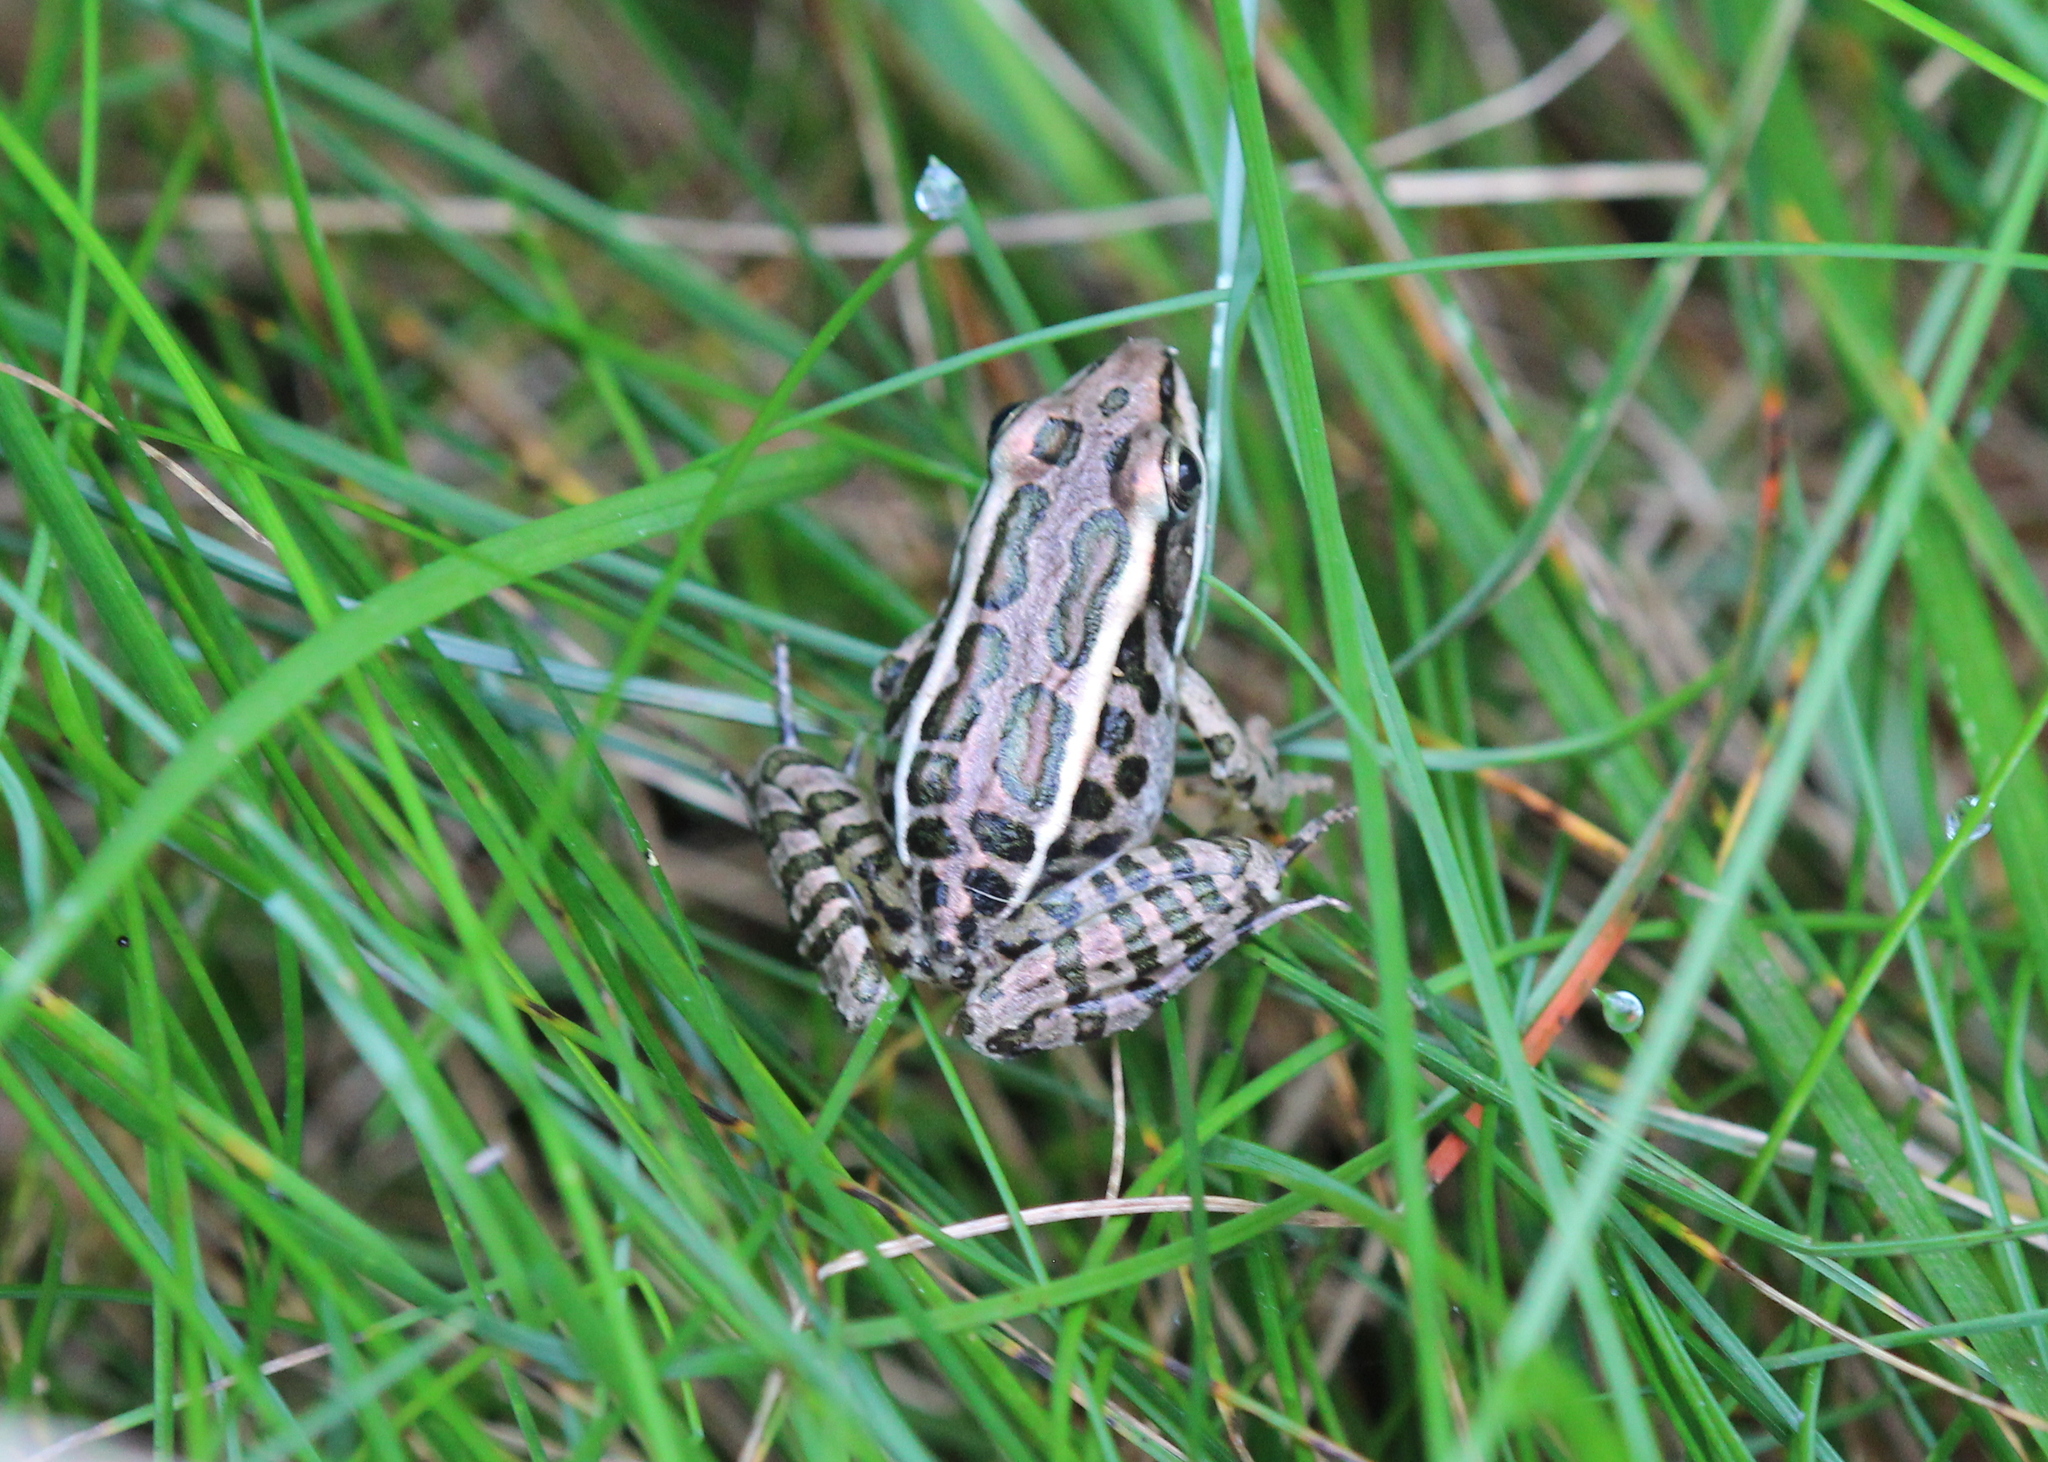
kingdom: Animalia
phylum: Chordata
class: Amphibia
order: Anura
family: Ranidae
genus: Lithobates
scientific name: Lithobates palustris
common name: Pickerel frog
